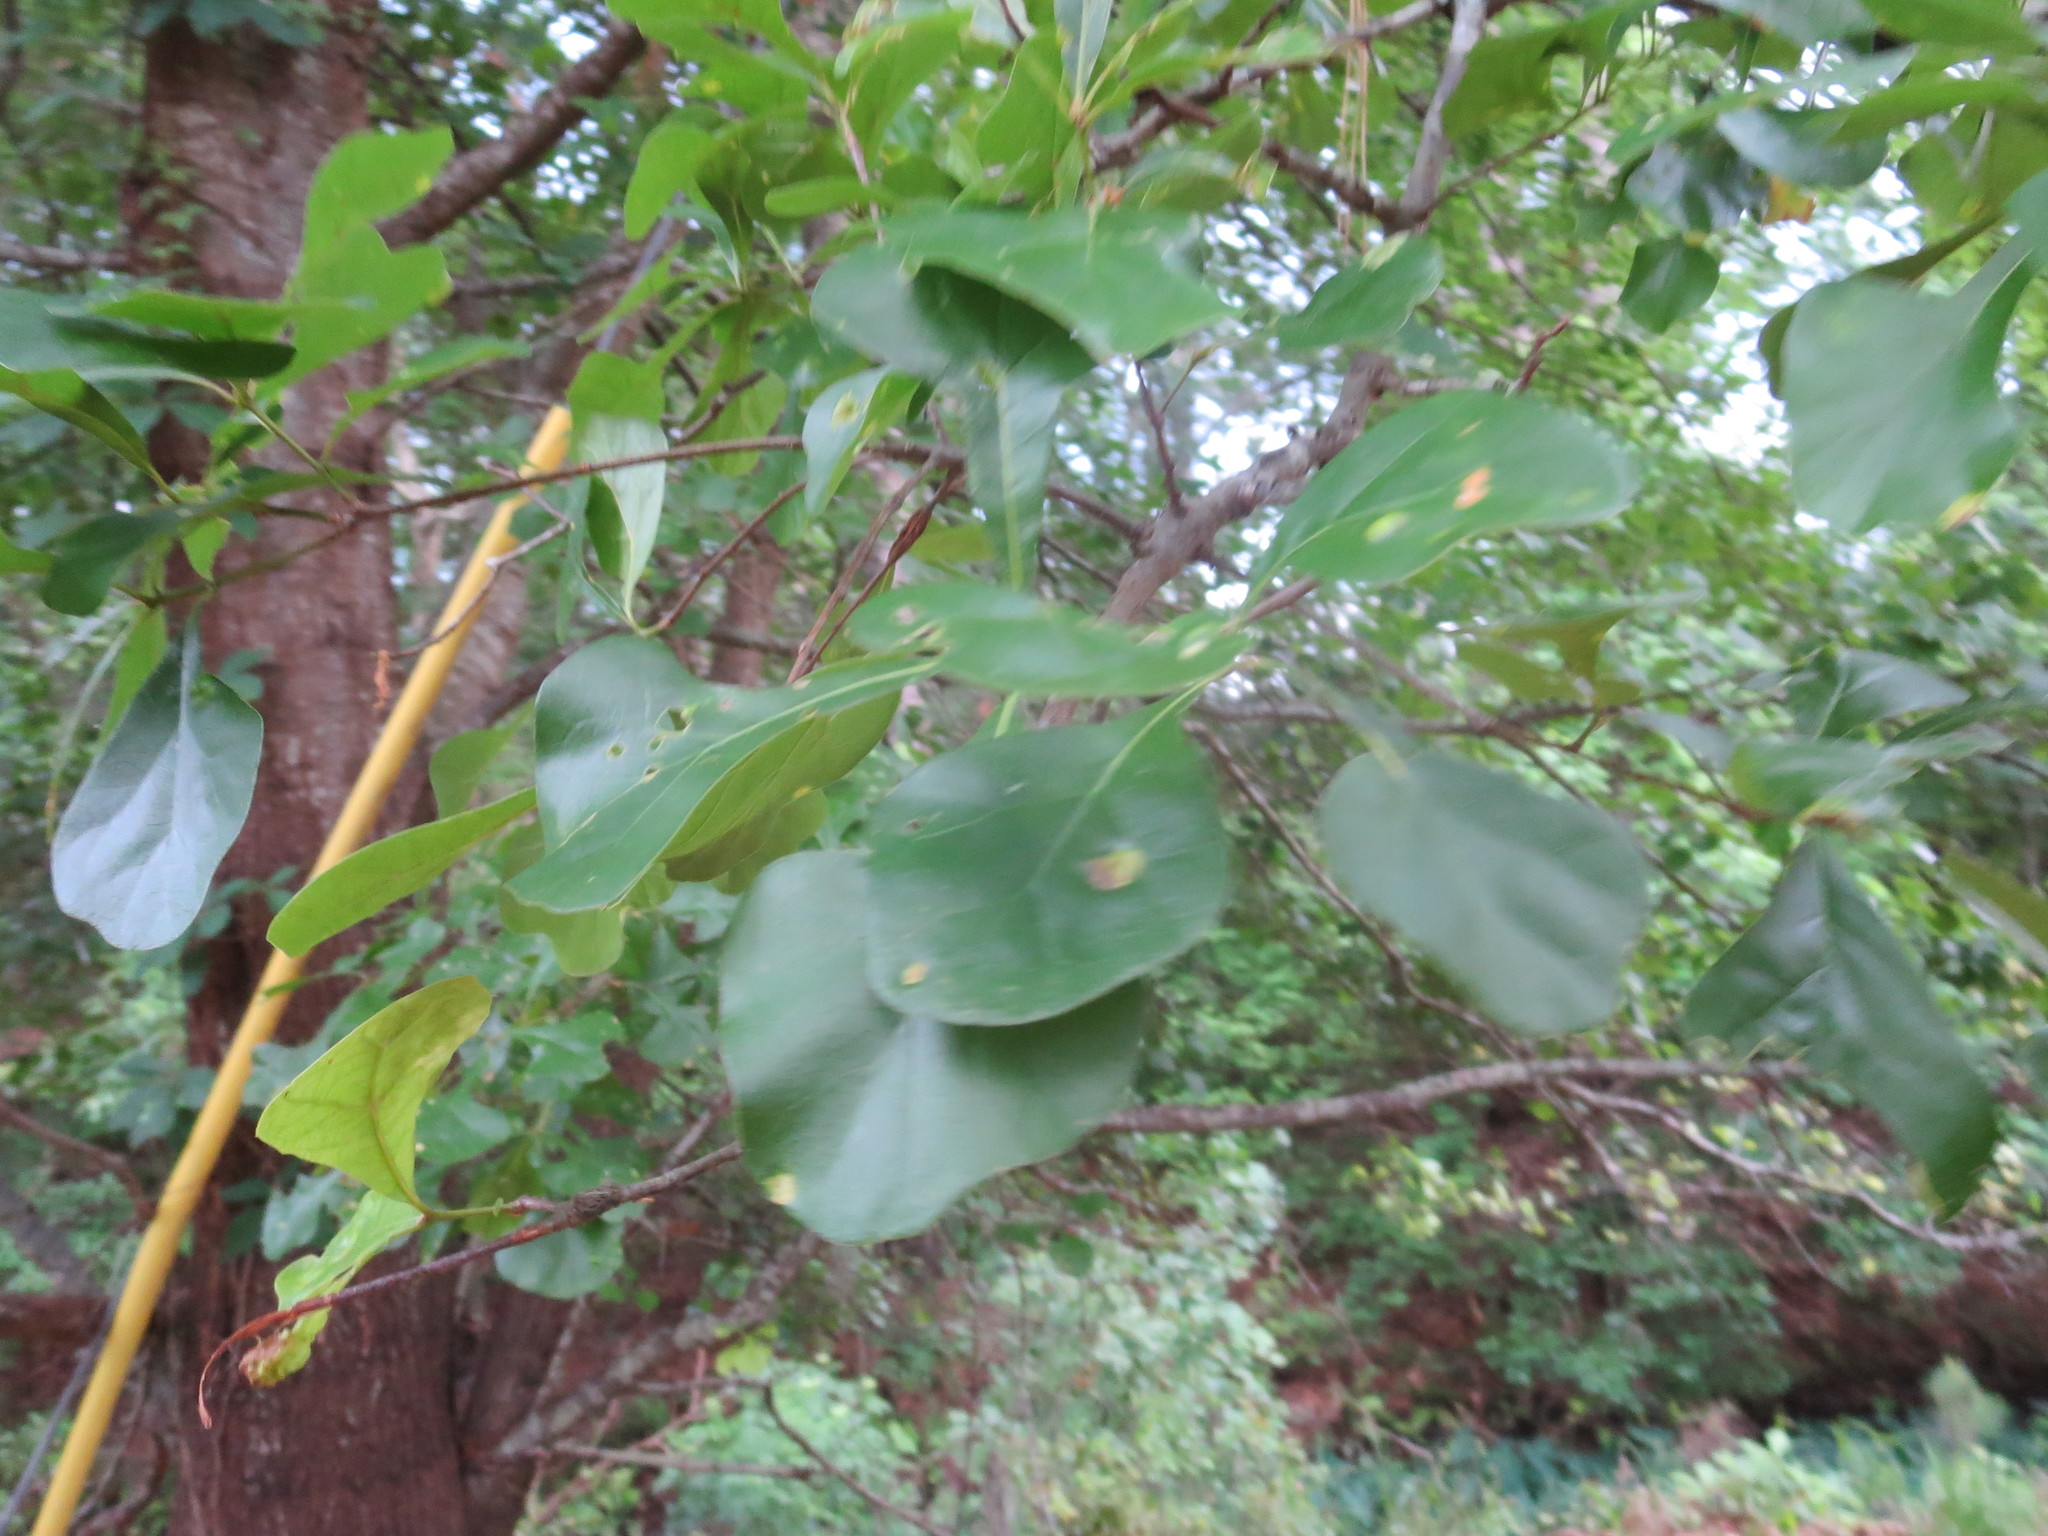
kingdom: Plantae
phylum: Tracheophyta
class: Magnoliopsida
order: Fagales
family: Fagaceae
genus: Quercus
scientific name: Quercus nigra
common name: Water oak
